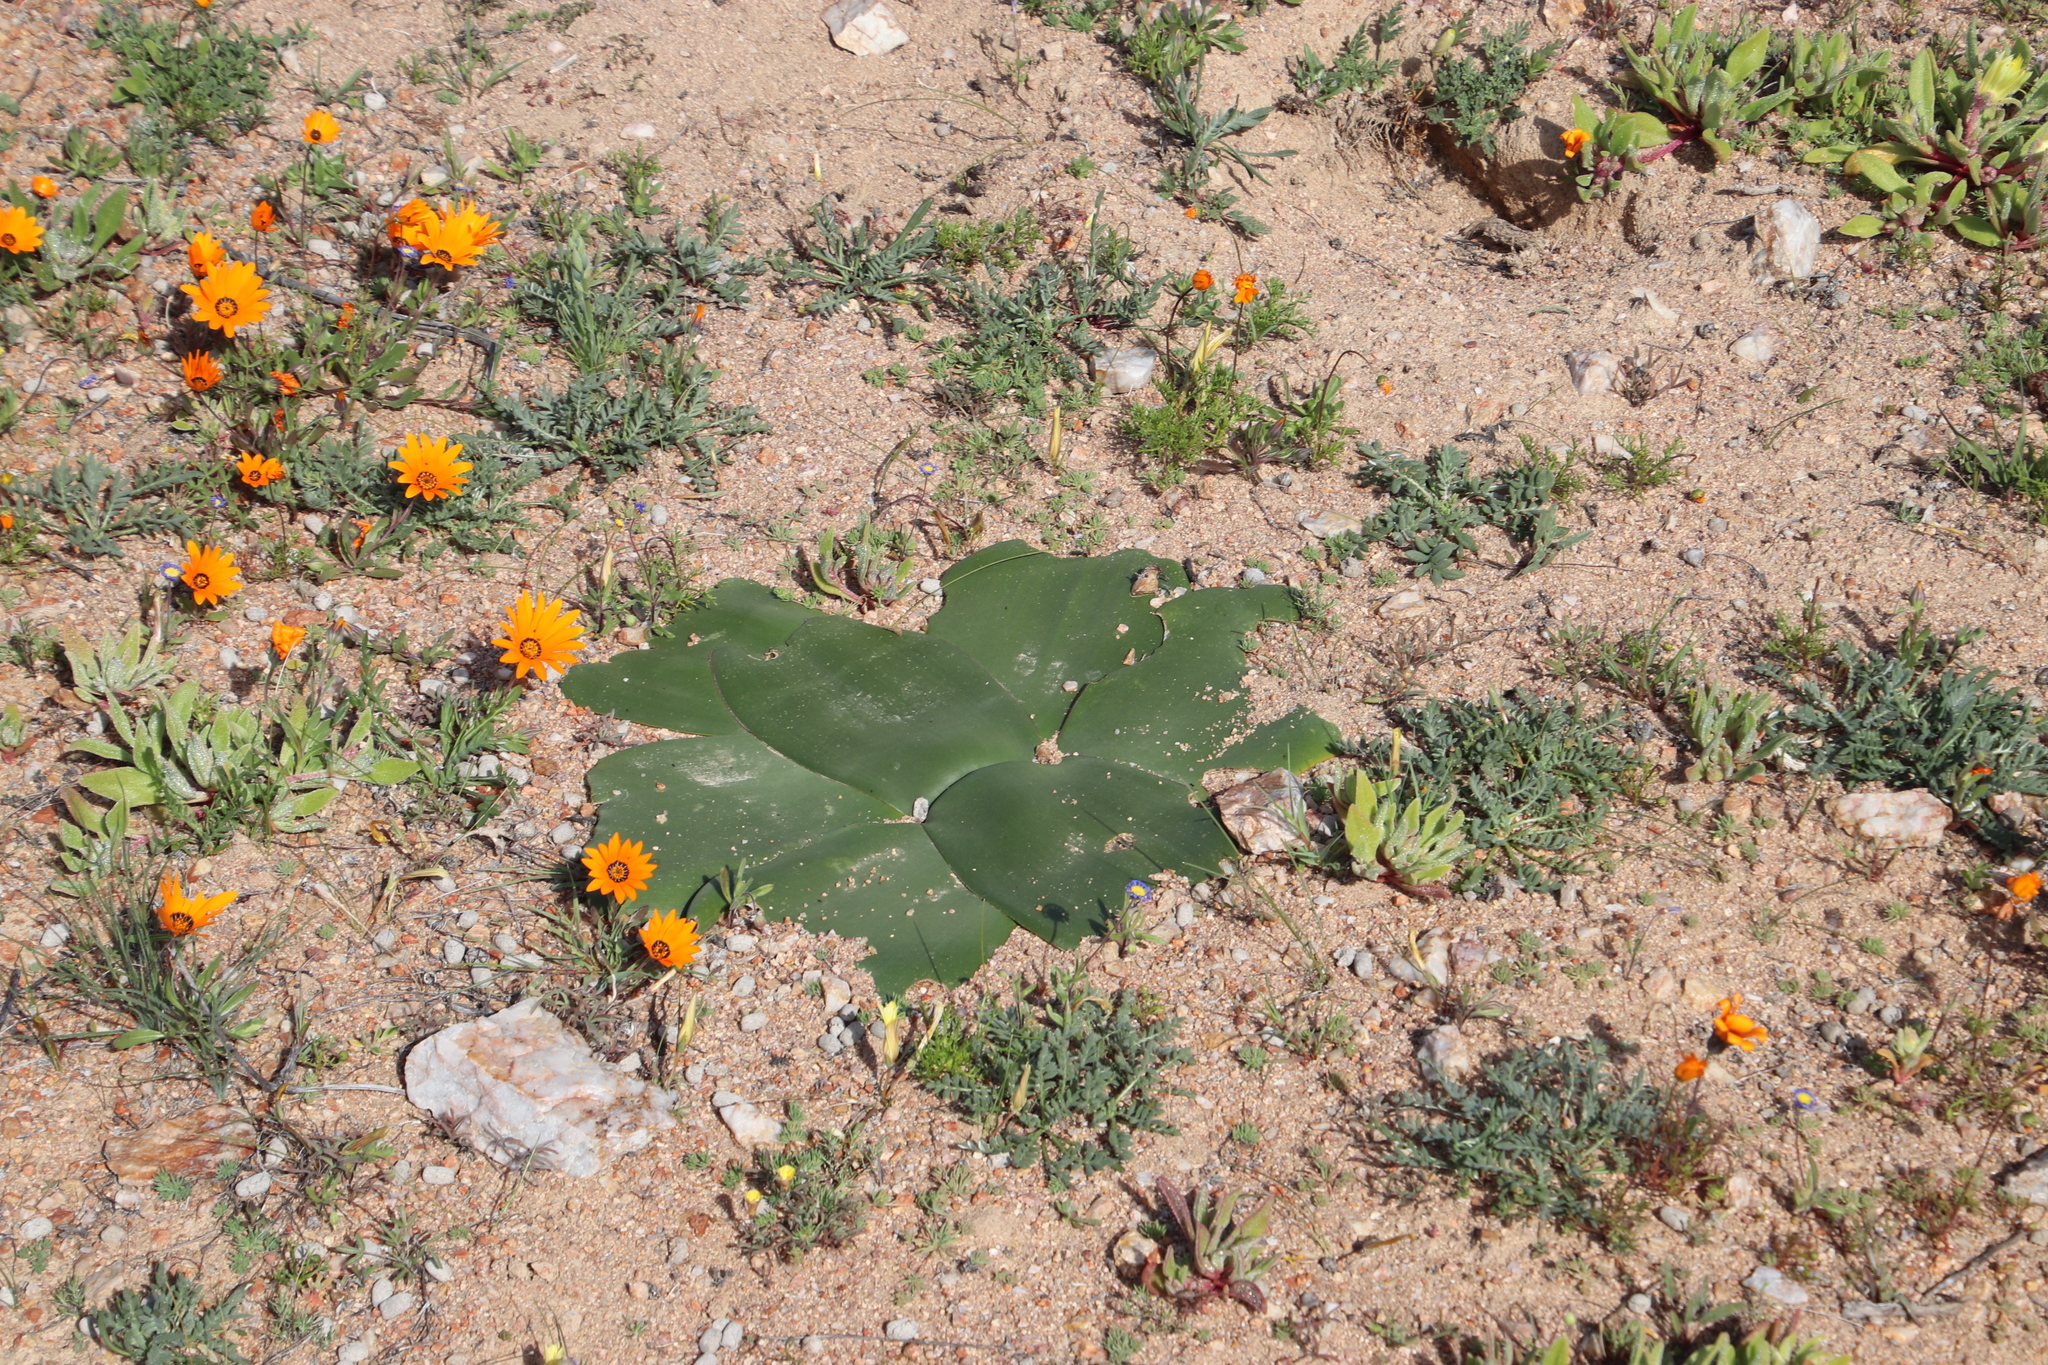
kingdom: Plantae
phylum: Tracheophyta
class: Liliopsida
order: Asparagales
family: Amaryllidaceae
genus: Brunsvigia
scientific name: Brunsvigia bosmaniae
